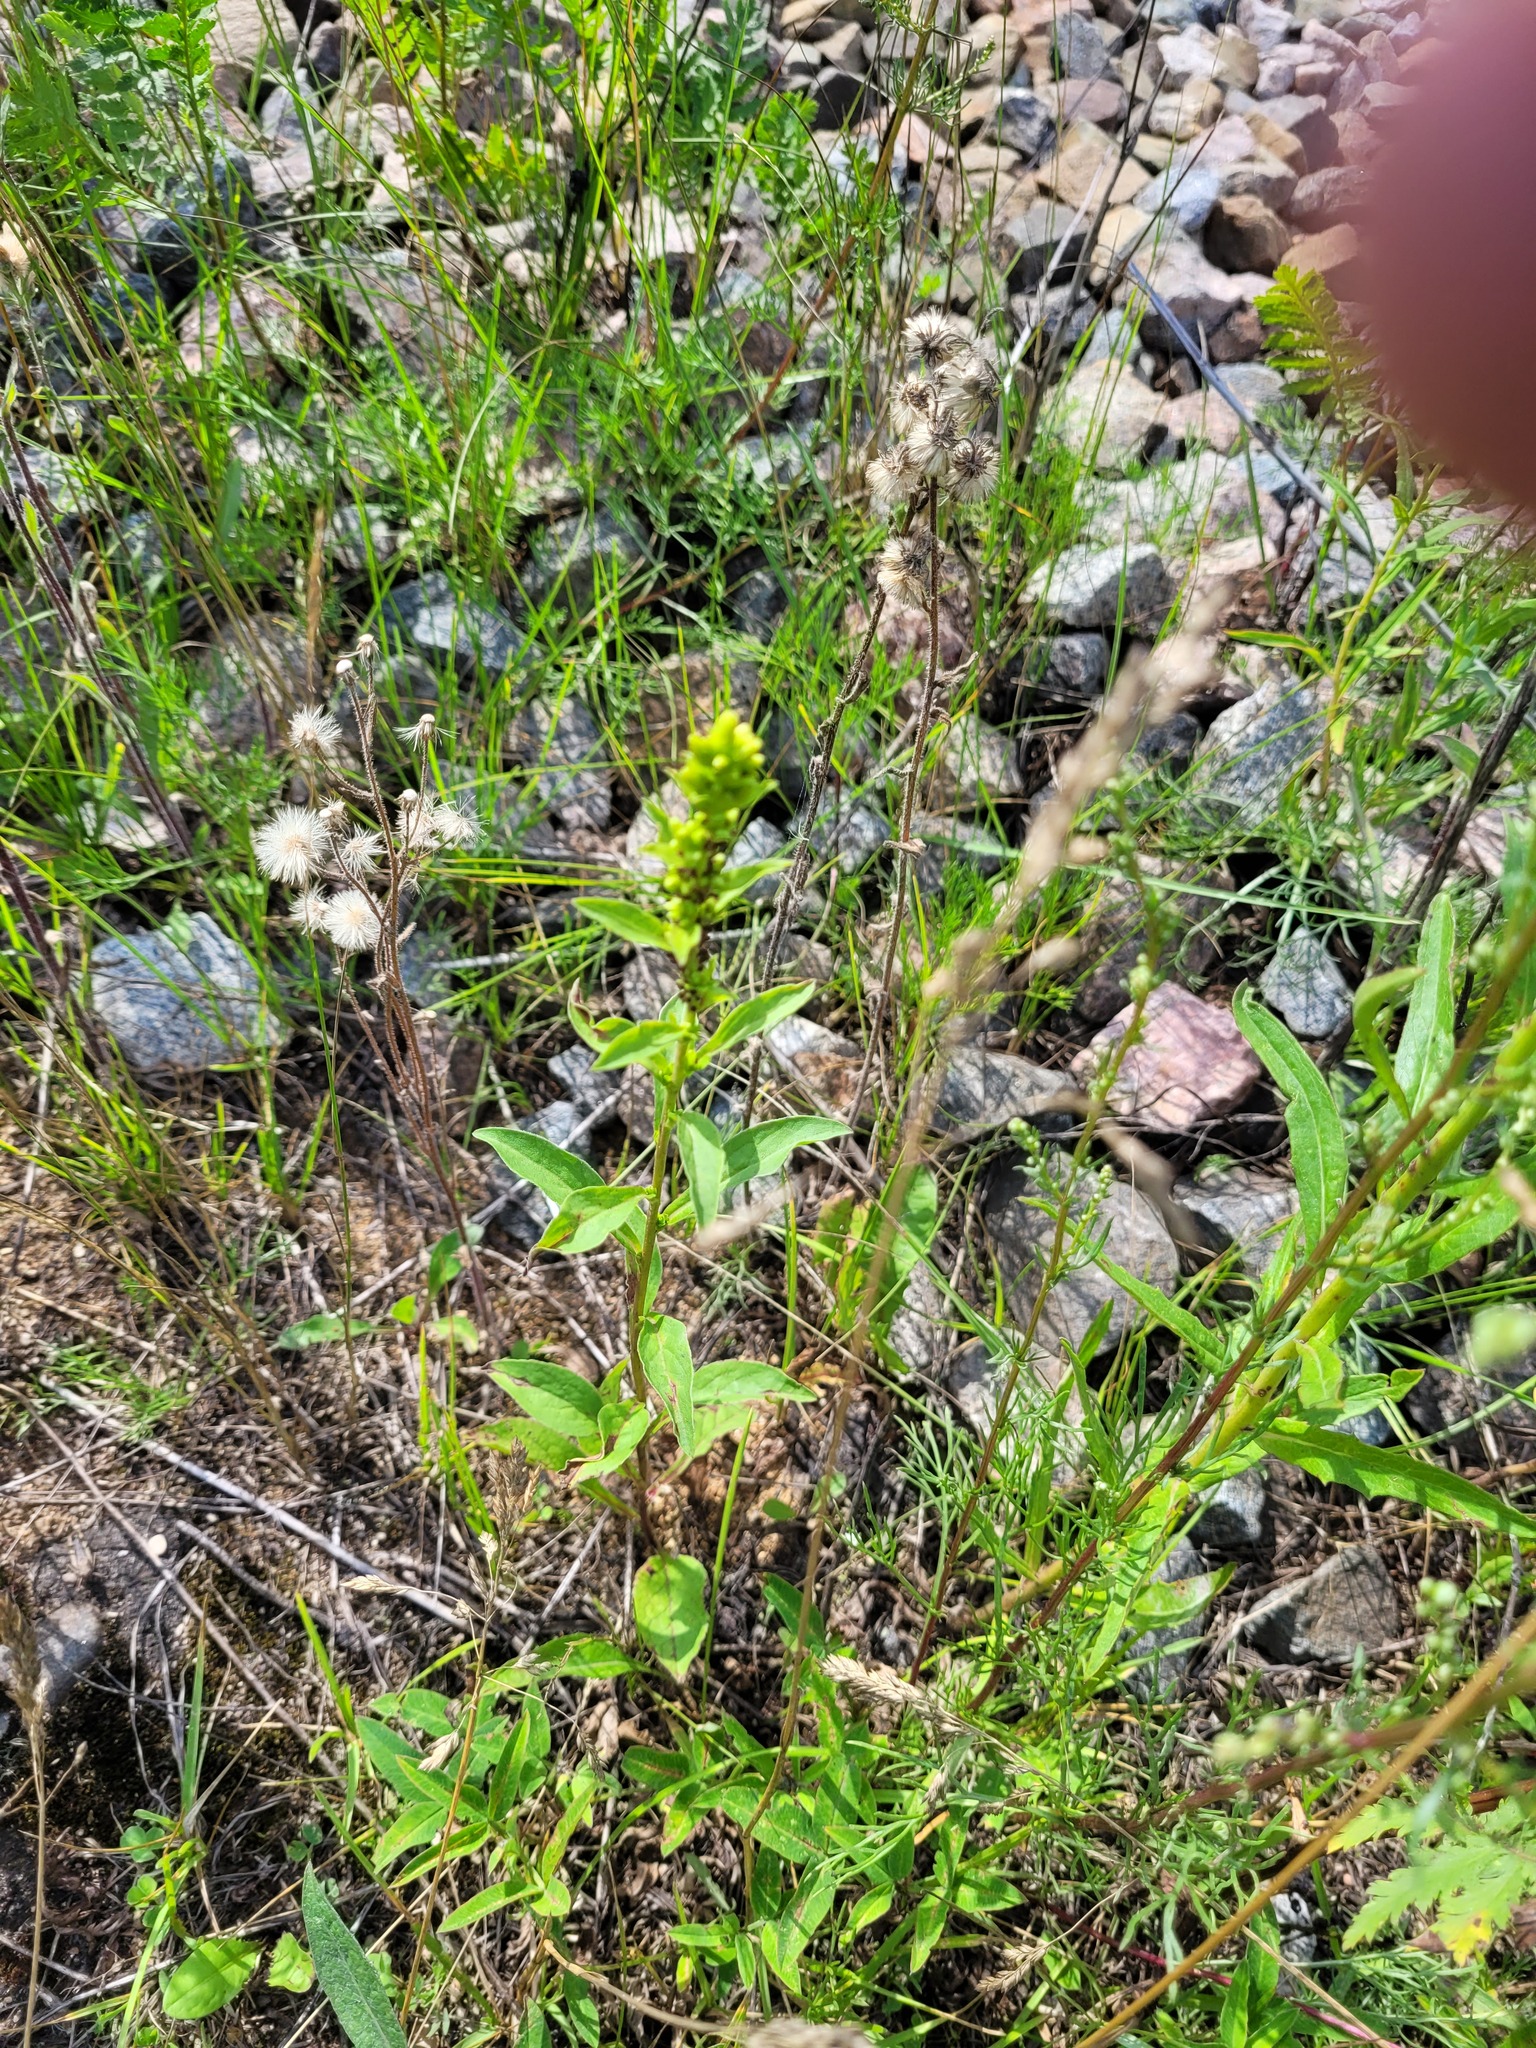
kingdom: Plantae
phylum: Tracheophyta
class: Magnoliopsida
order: Asterales
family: Asteraceae
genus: Solidago
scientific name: Solidago virgaurea
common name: Goldenrod
